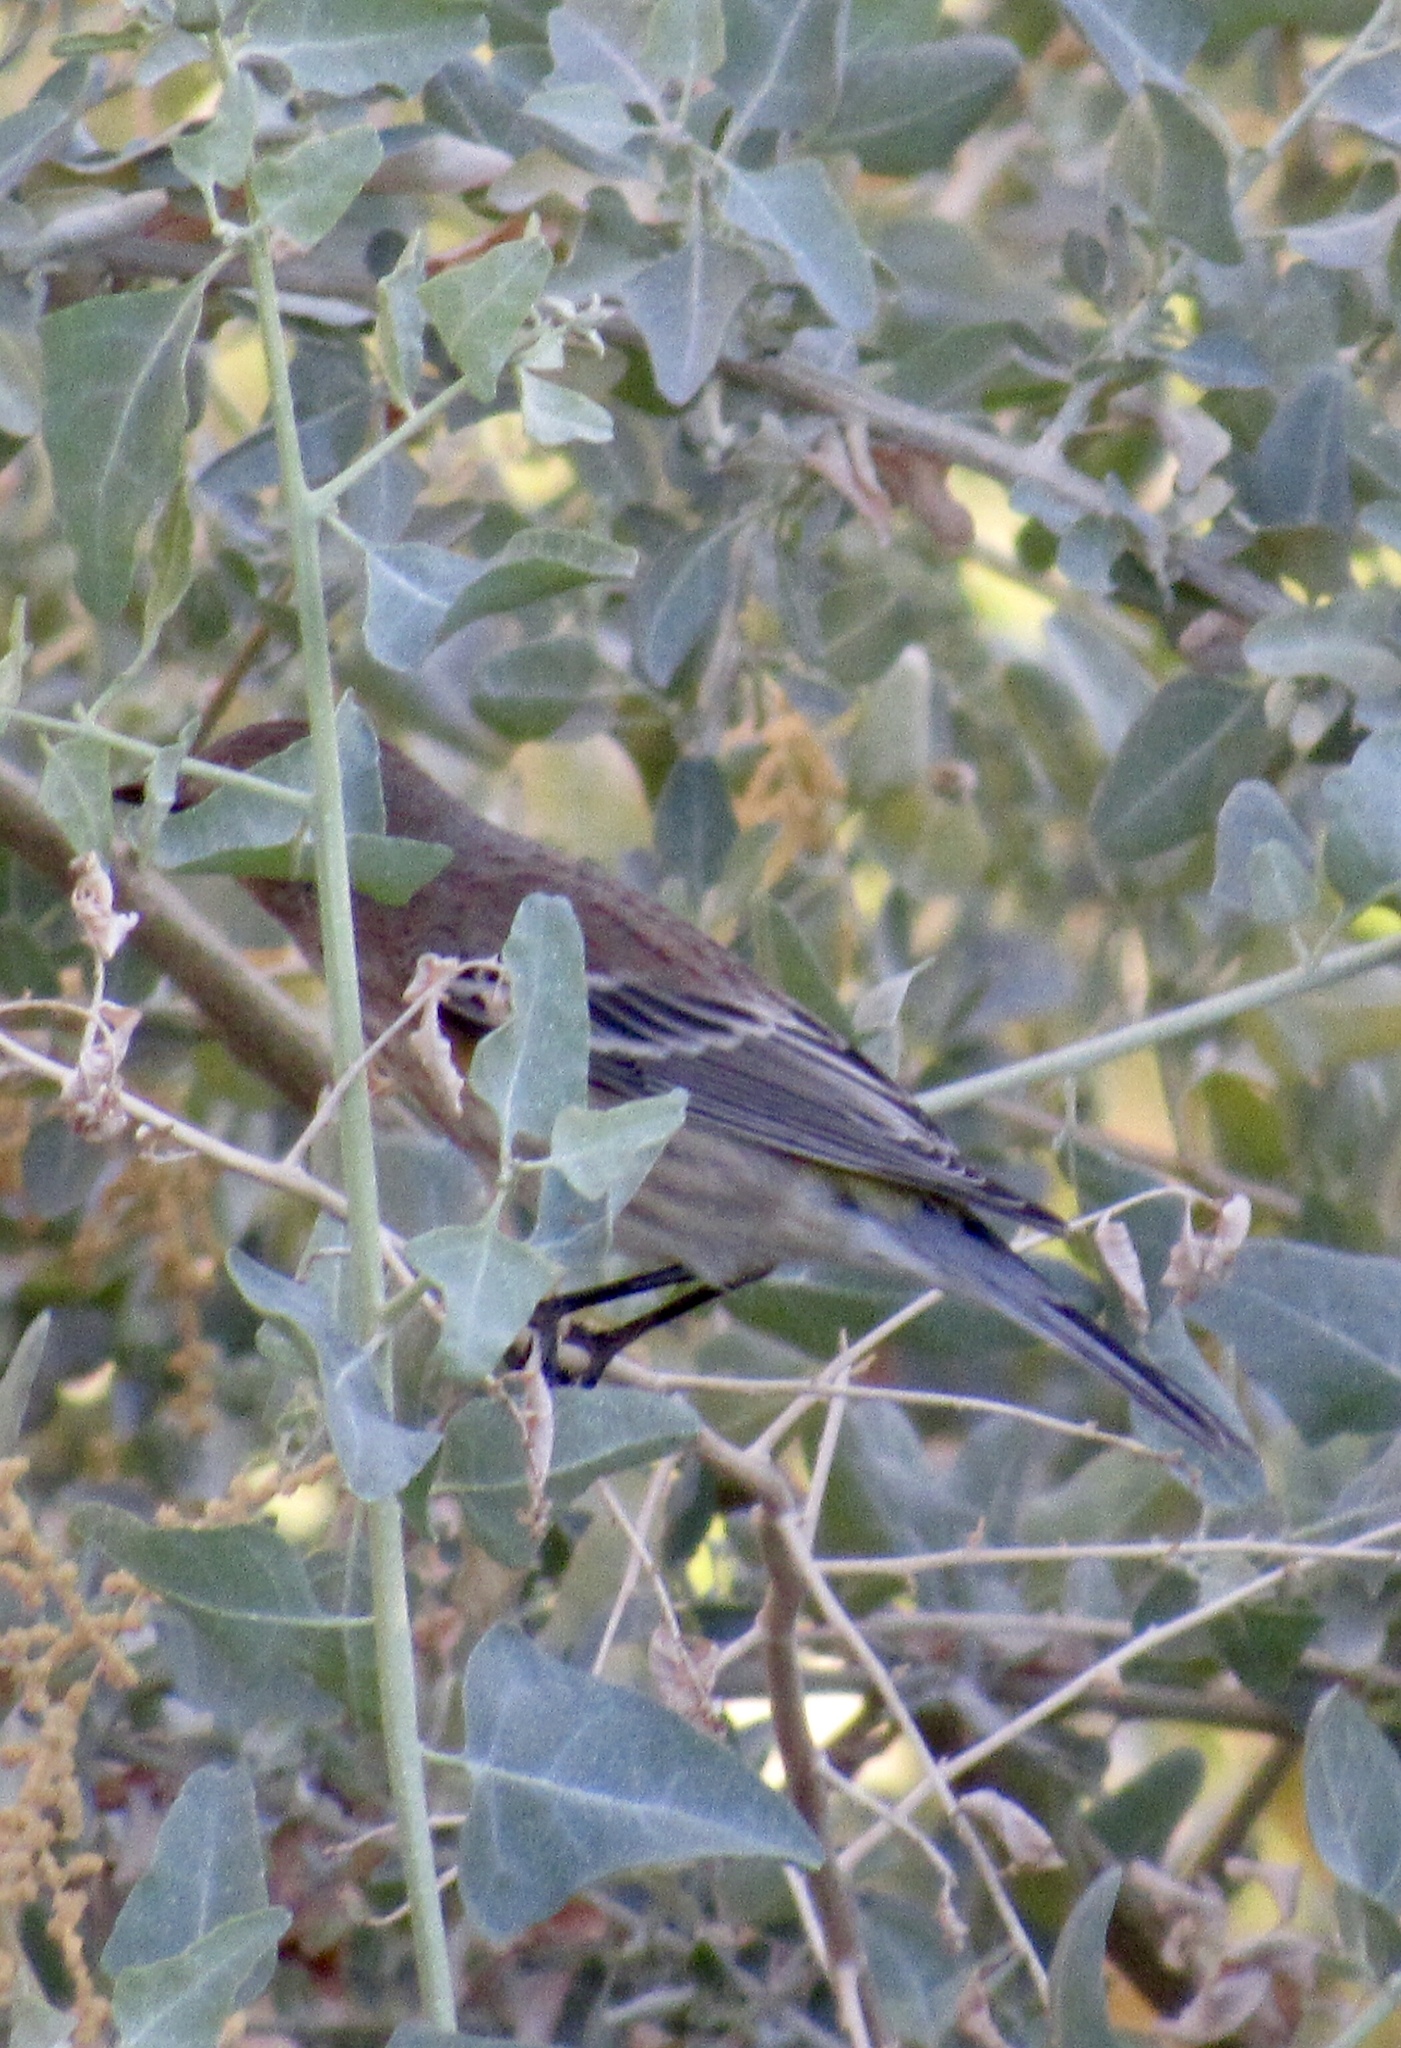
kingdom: Animalia
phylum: Chordata
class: Aves
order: Passeriformes
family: Parulidae
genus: Setophaga
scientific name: Setophaga coronata
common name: Myrtle warbler
